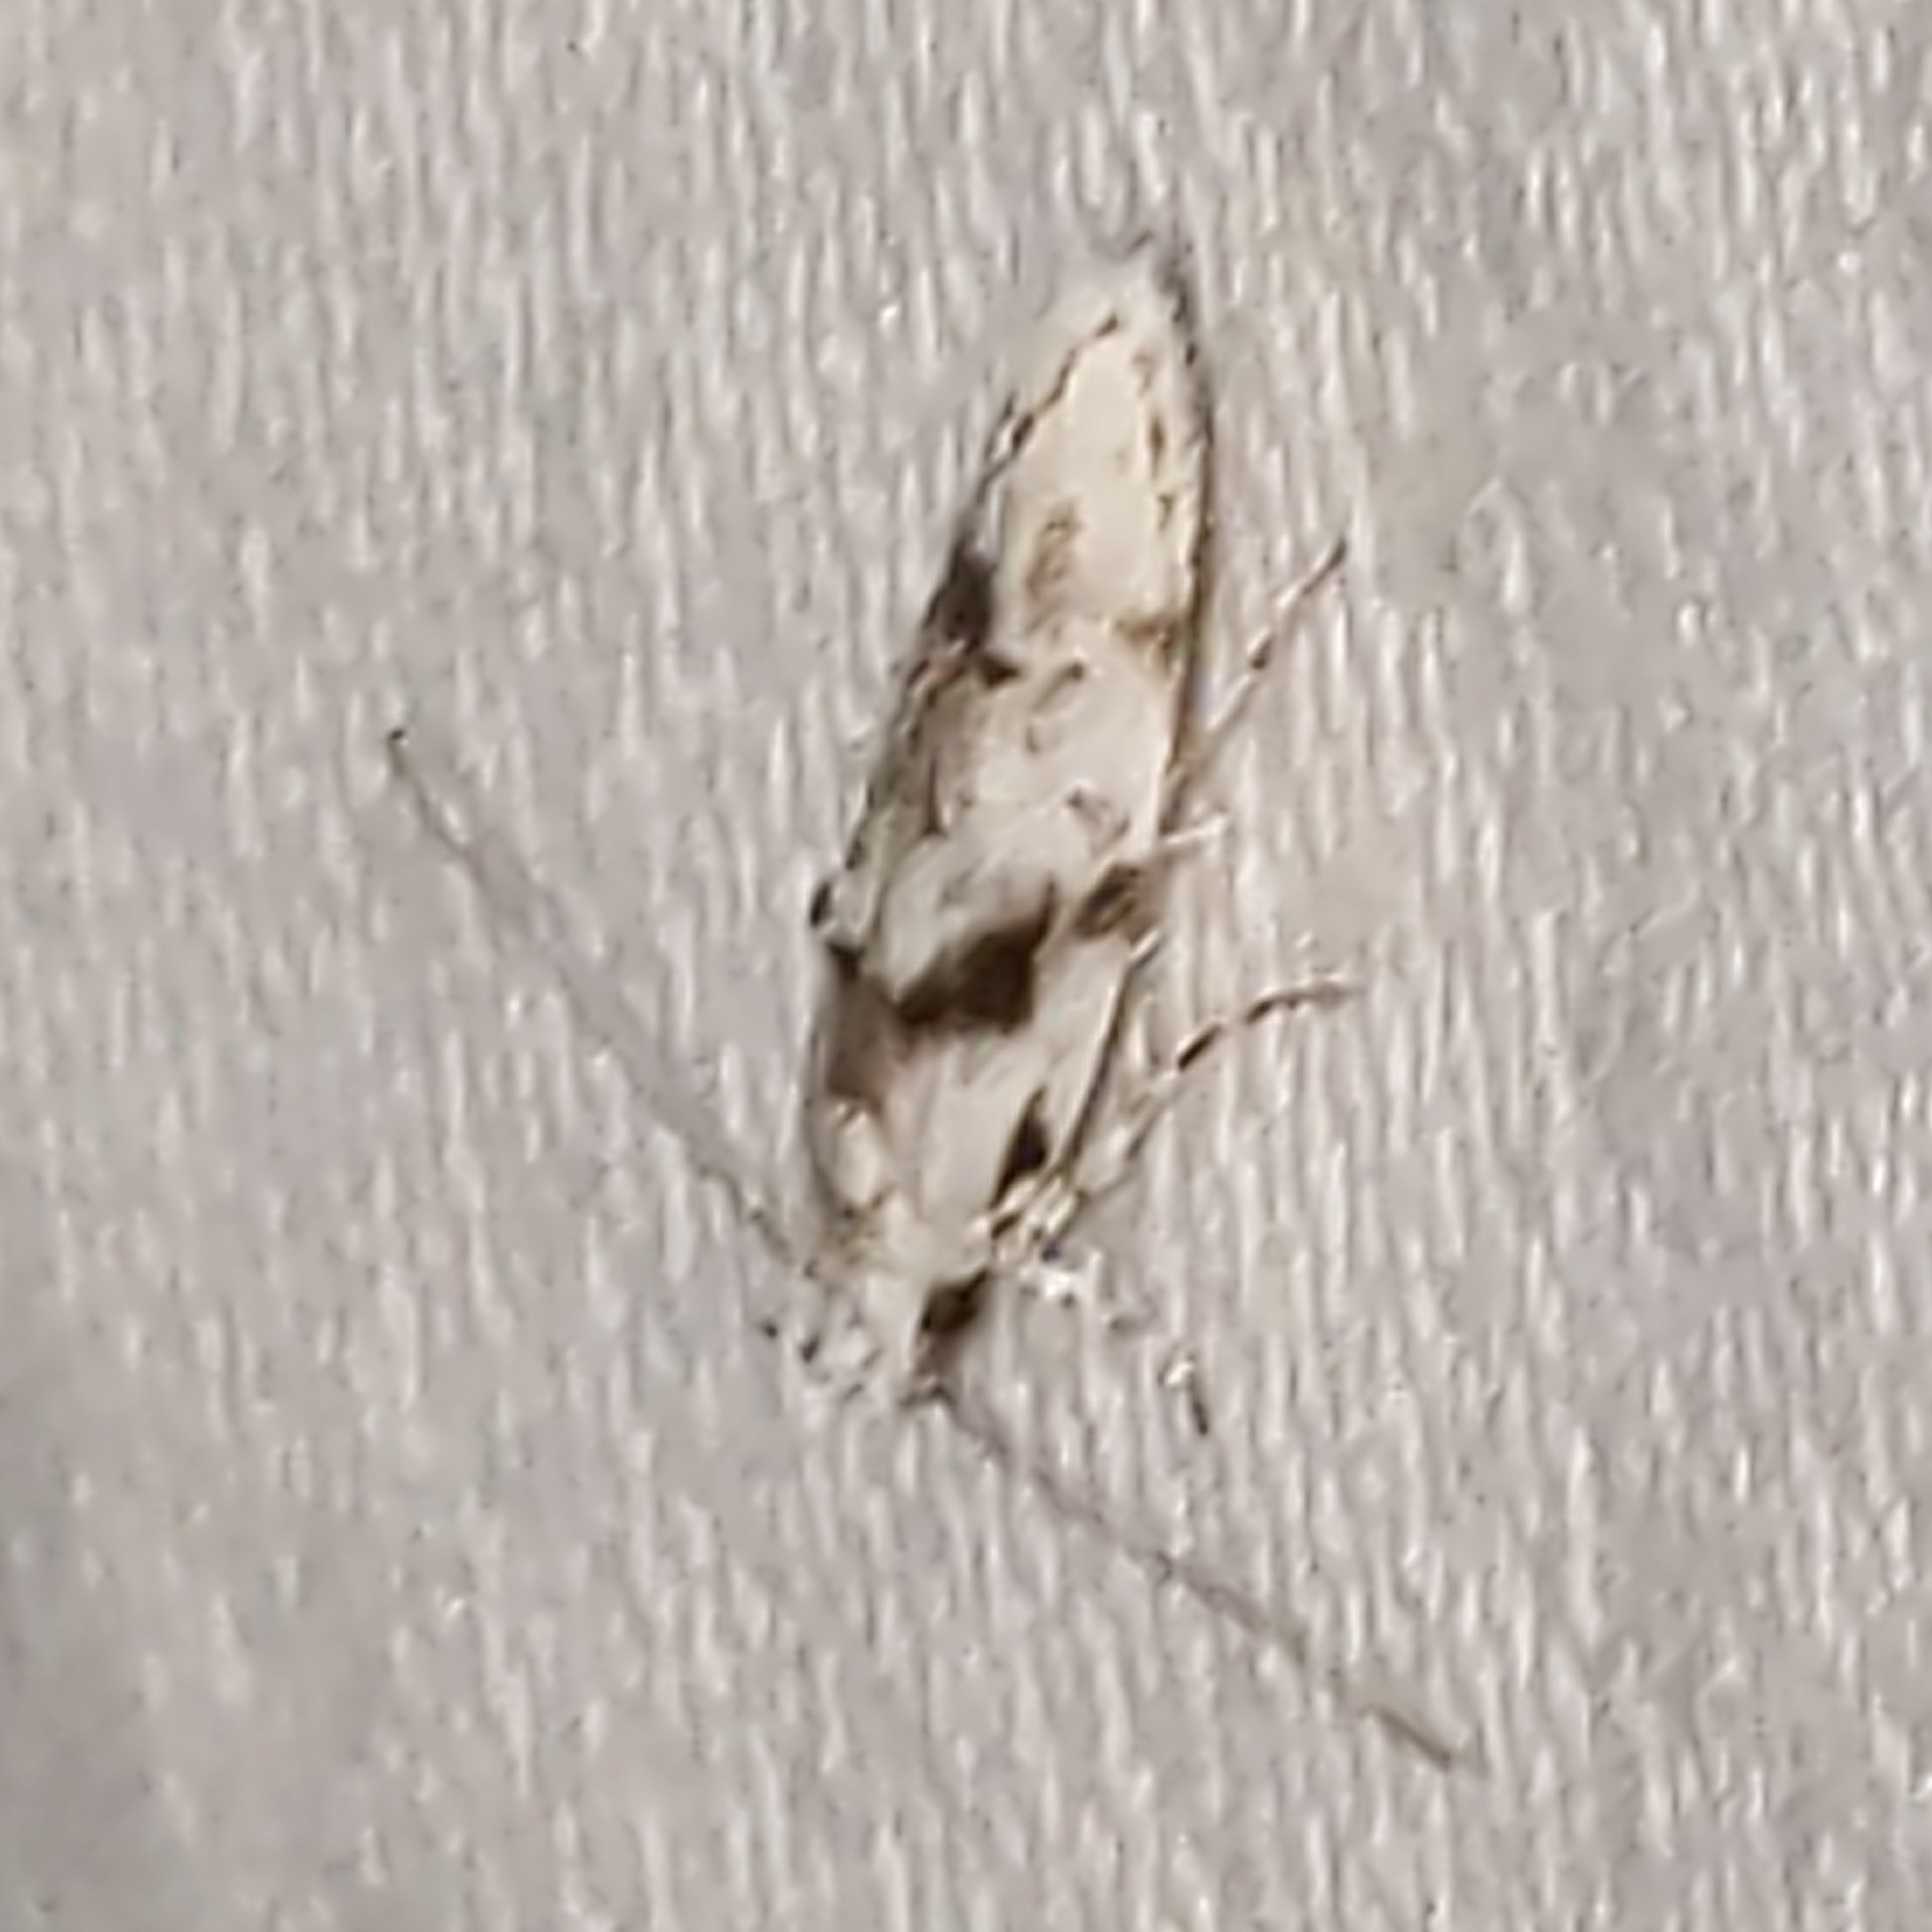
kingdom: Animalia
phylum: Arthropoda
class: Insecta
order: Lepidoptera
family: Gelechiidae
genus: Arogalea
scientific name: Arogalea cristifasciella
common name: White stripe-backed moth
